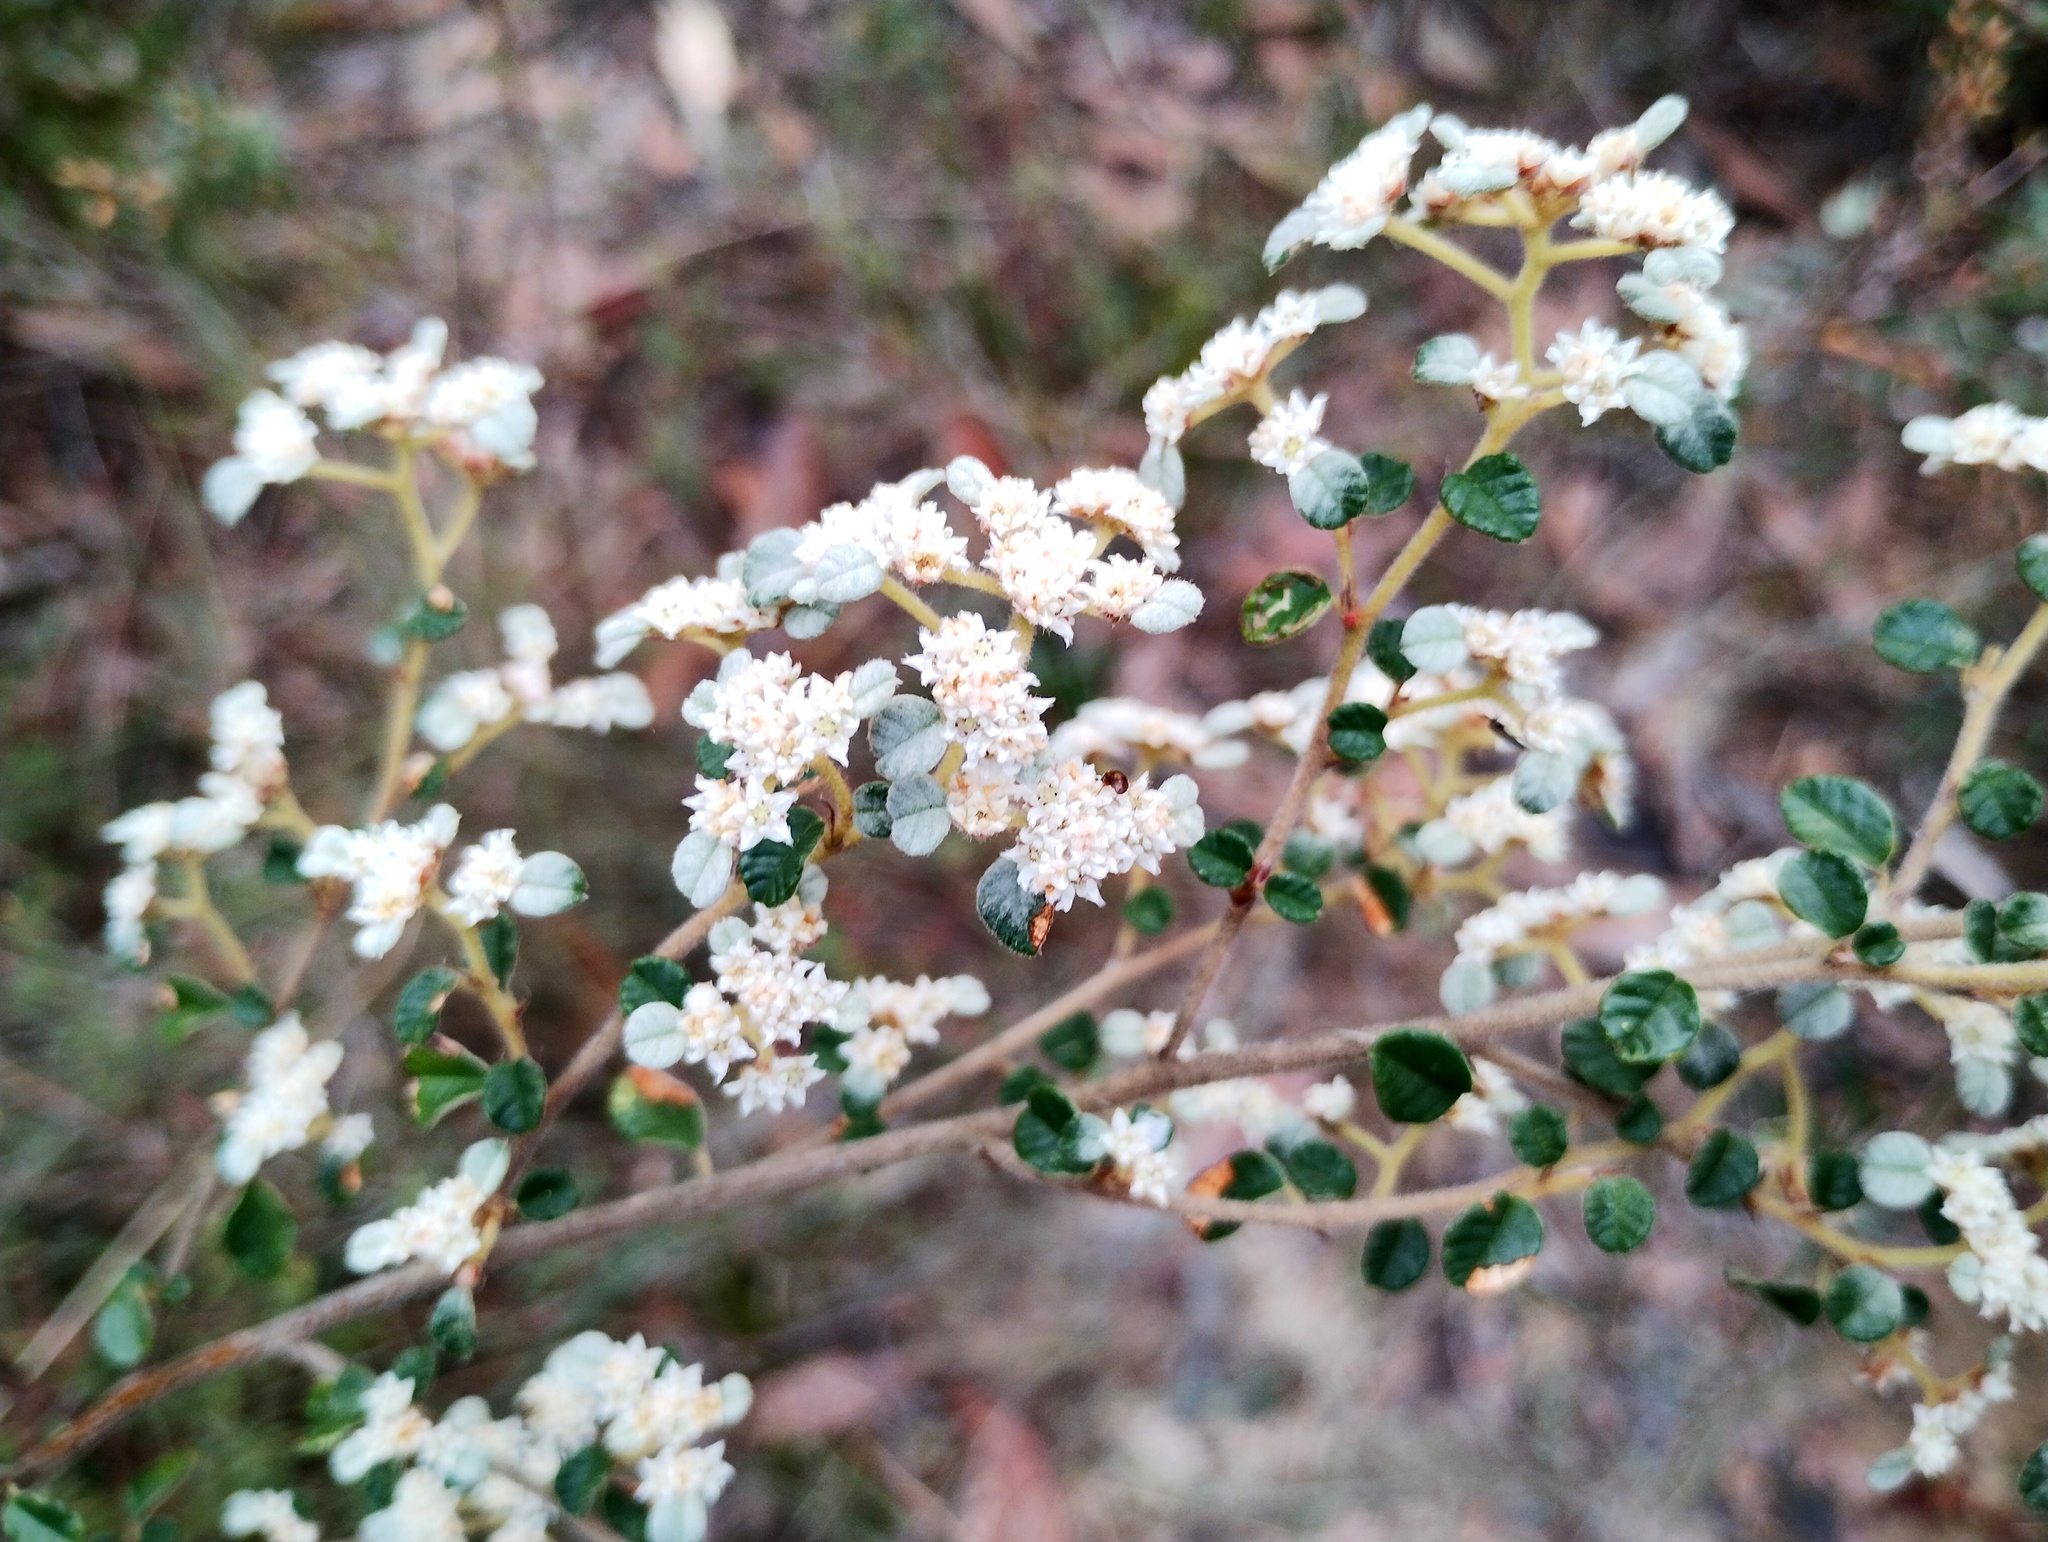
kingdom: Plantae
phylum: Tracheophyta
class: Magnoliopsida
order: Rosales
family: Rhamnaceae
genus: Spyridium
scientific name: Spyridium parvifolium
